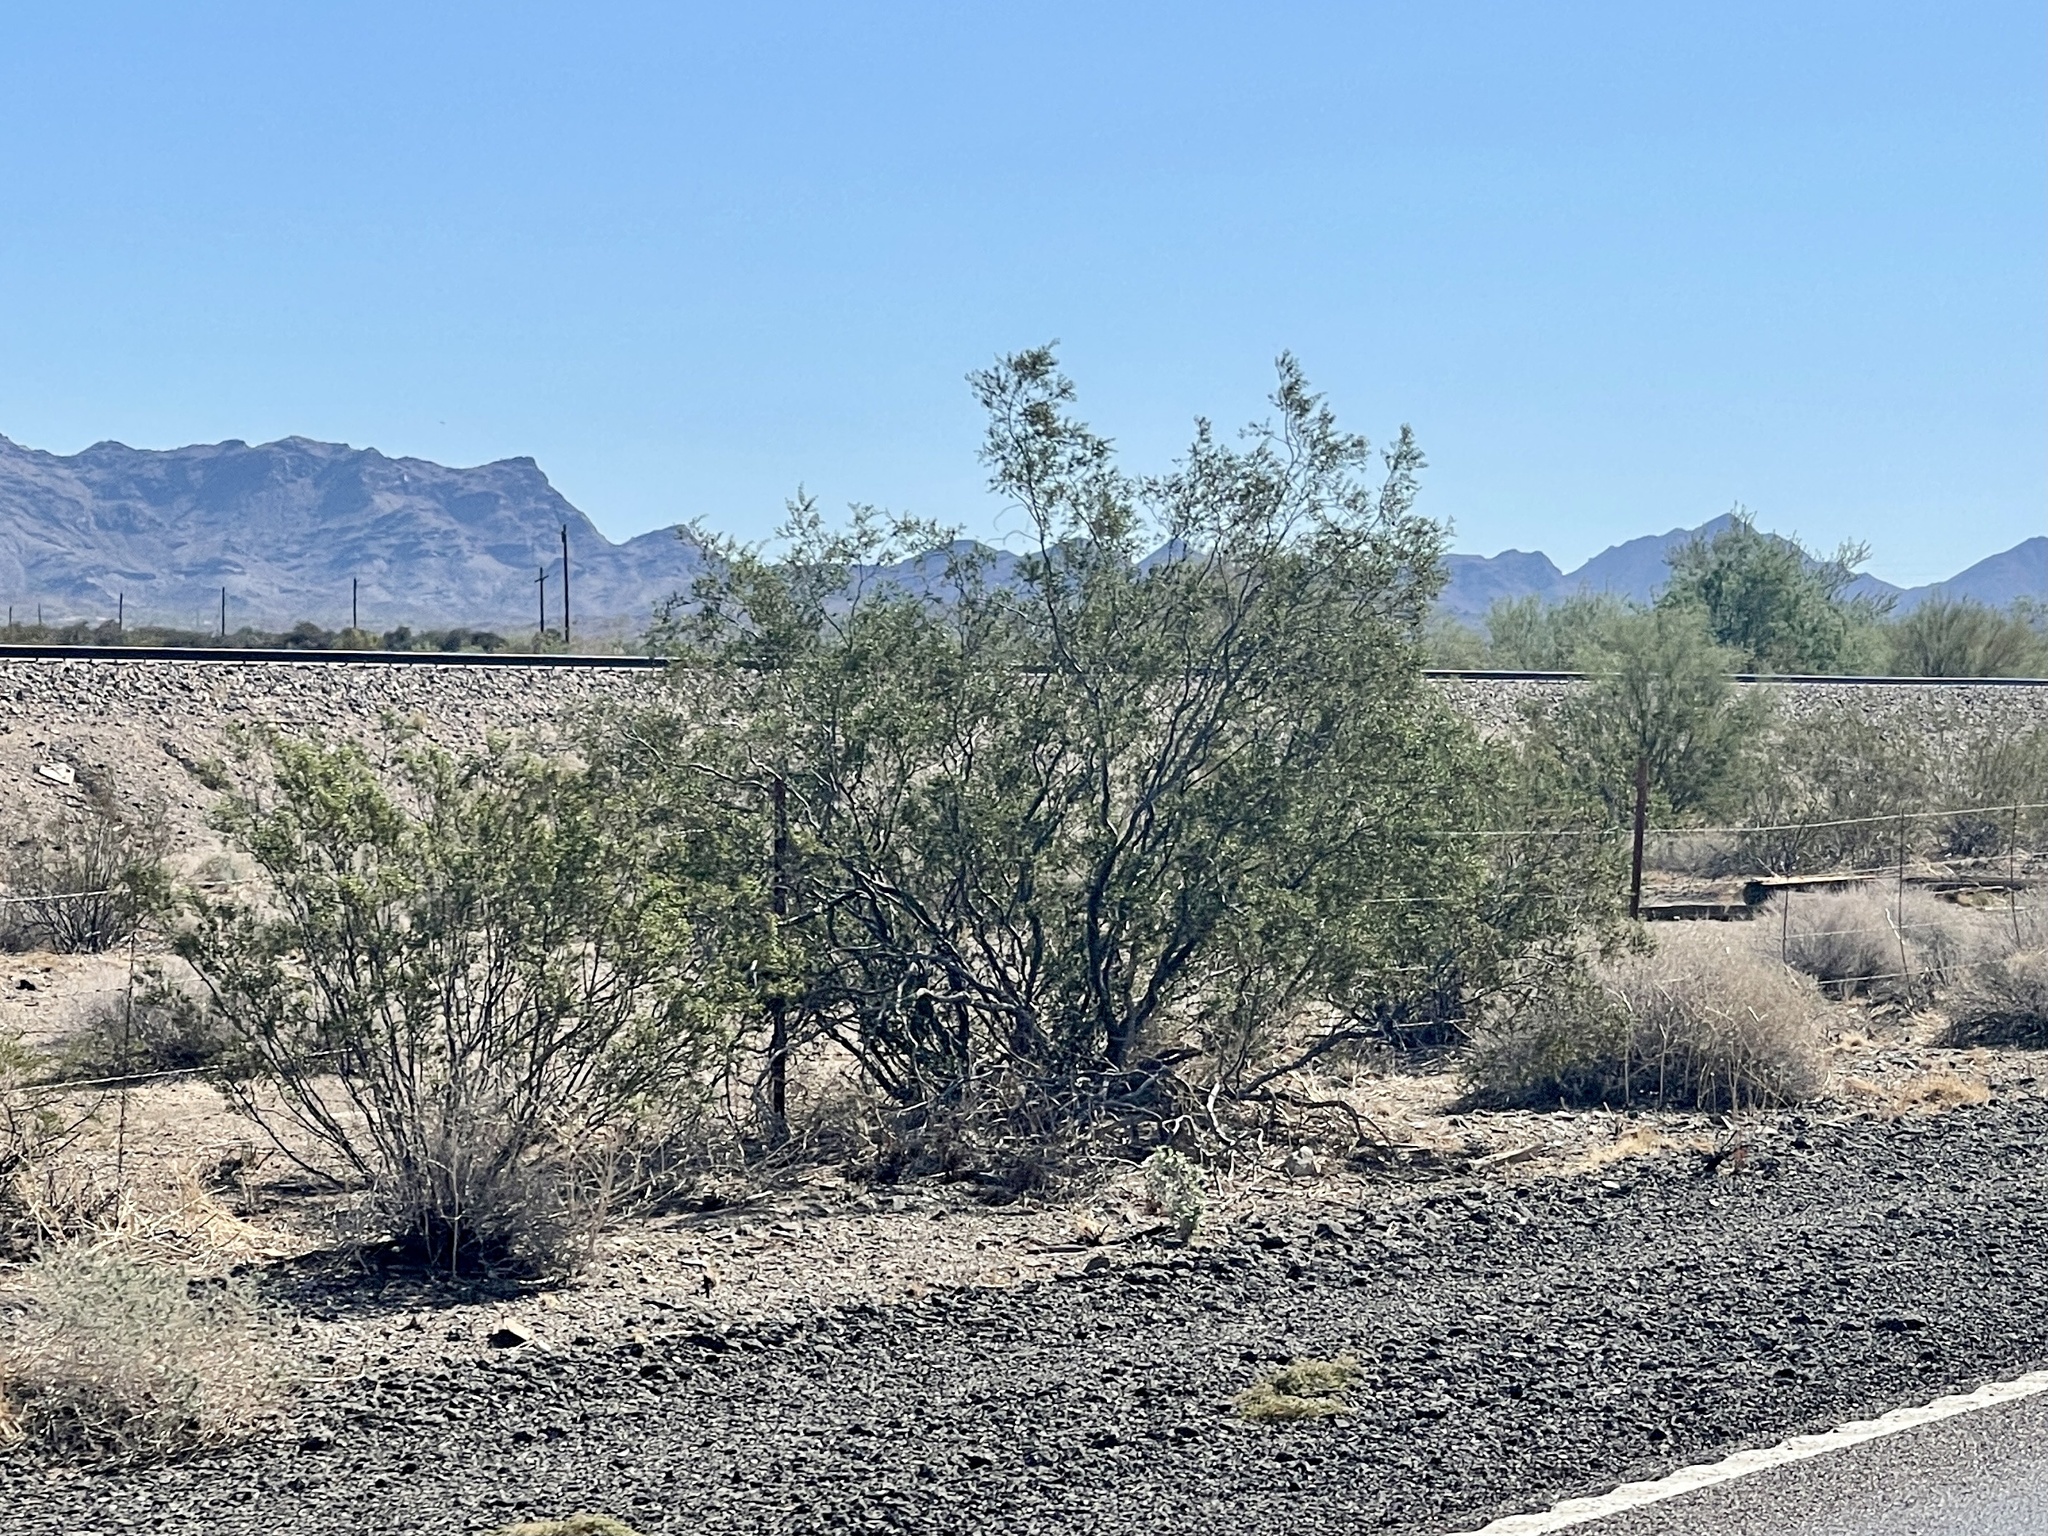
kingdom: Plantae
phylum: Tracheophyta
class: Magnoliopsida
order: Zygophyllales
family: Zygophyllaceae
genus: Larrea
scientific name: Larrea tridentata
